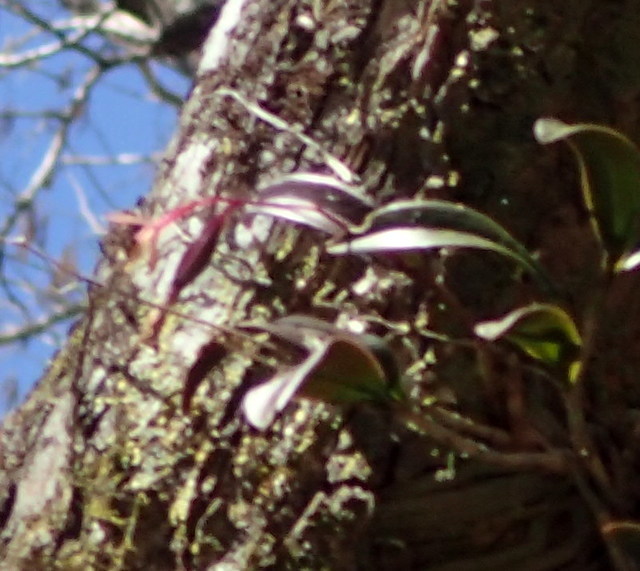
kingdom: Plantae
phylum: Tracheophyta
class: Liliopsida
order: Asparagales
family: Orchidaceae
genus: Epidendrum
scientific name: Epidendrum conopseum
